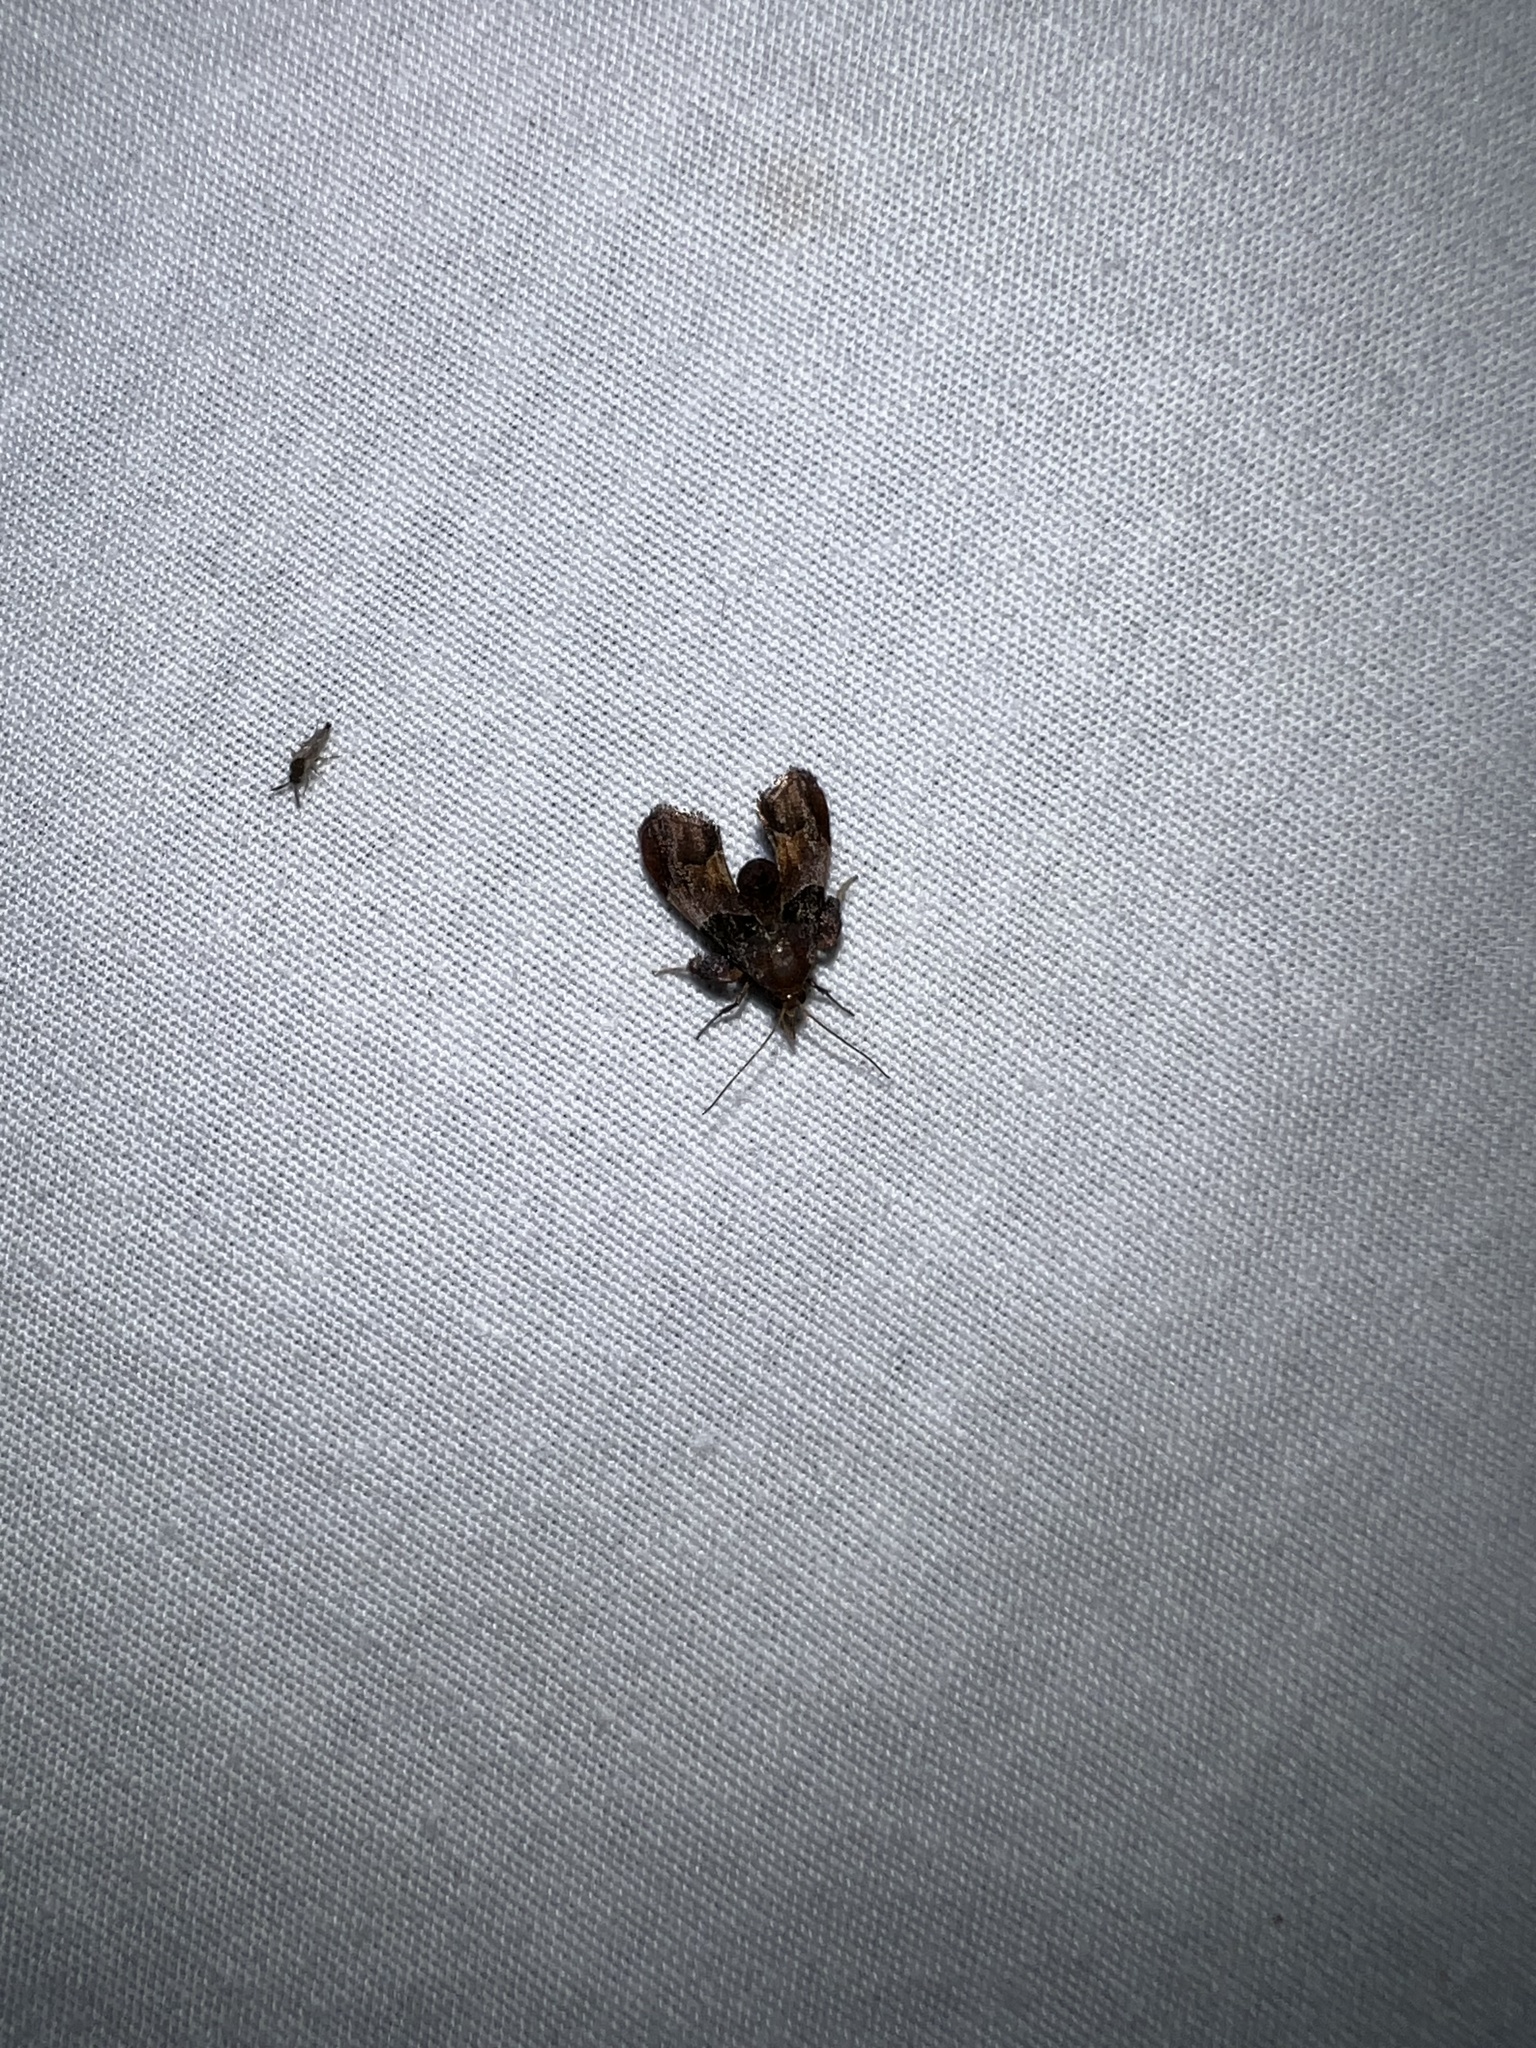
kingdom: Animalia
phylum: Arthropoda
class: Insecta
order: Lepidoptera
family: Pyralidae
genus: Tosale
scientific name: Tosale oviplagalis
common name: Dimorphic tosale moth
